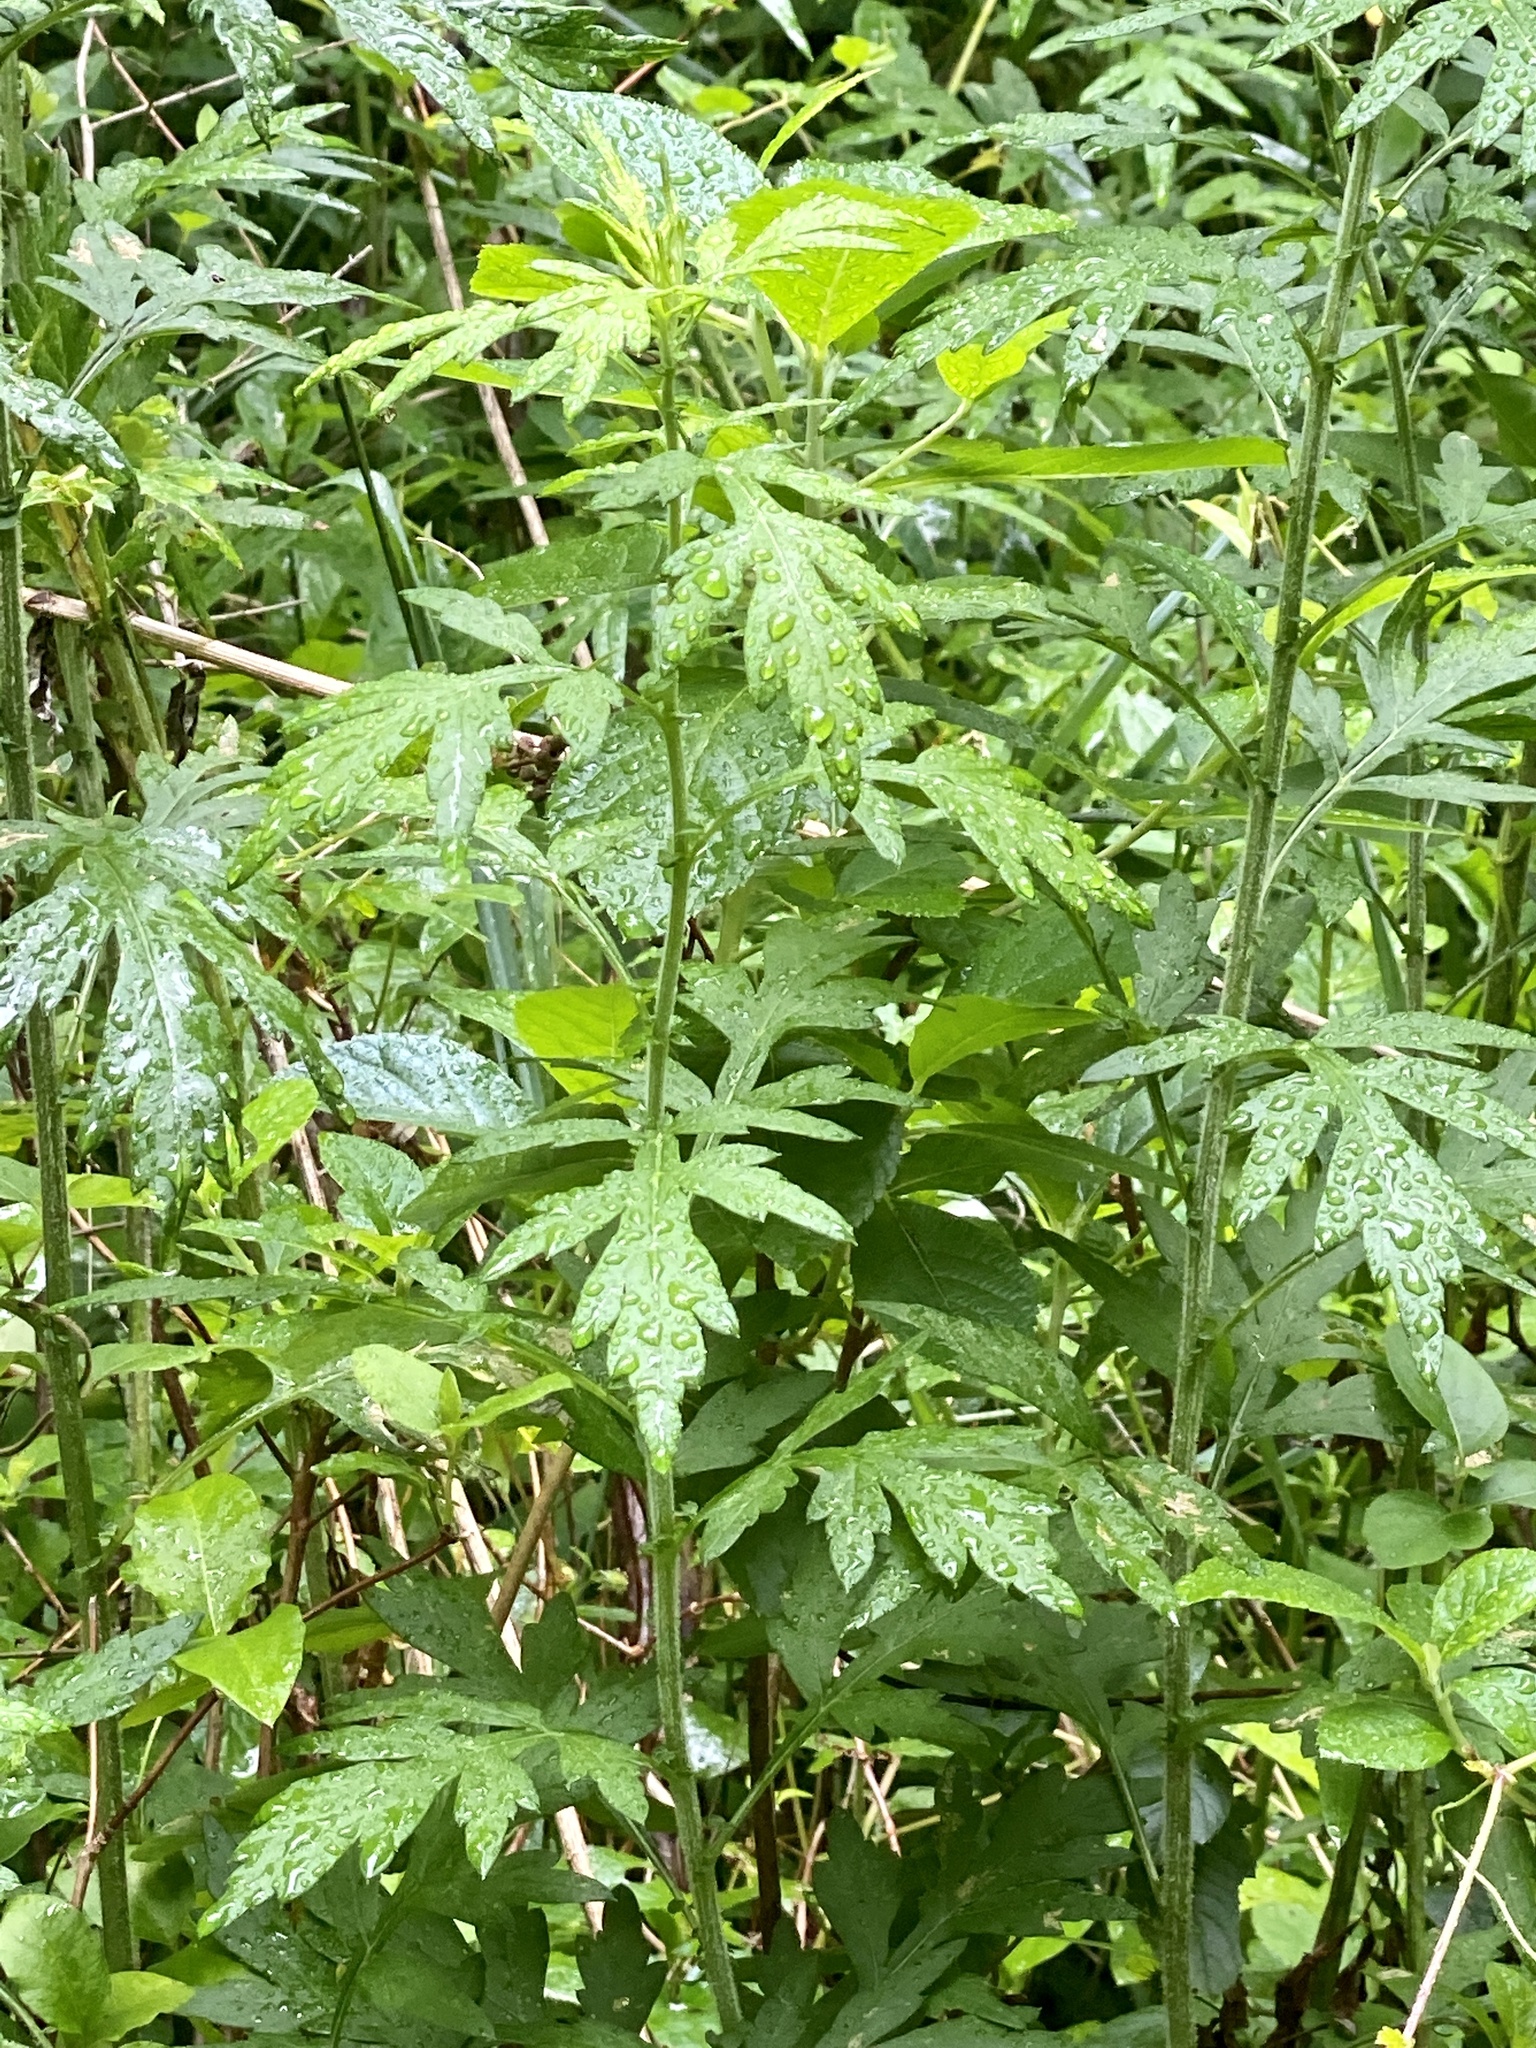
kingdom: Plantae
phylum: Tracheophyta
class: Magnoliopsida
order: Asterales
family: Asteraceae
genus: Artemisia
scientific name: Artemisia vulgaris
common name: Mugwort
